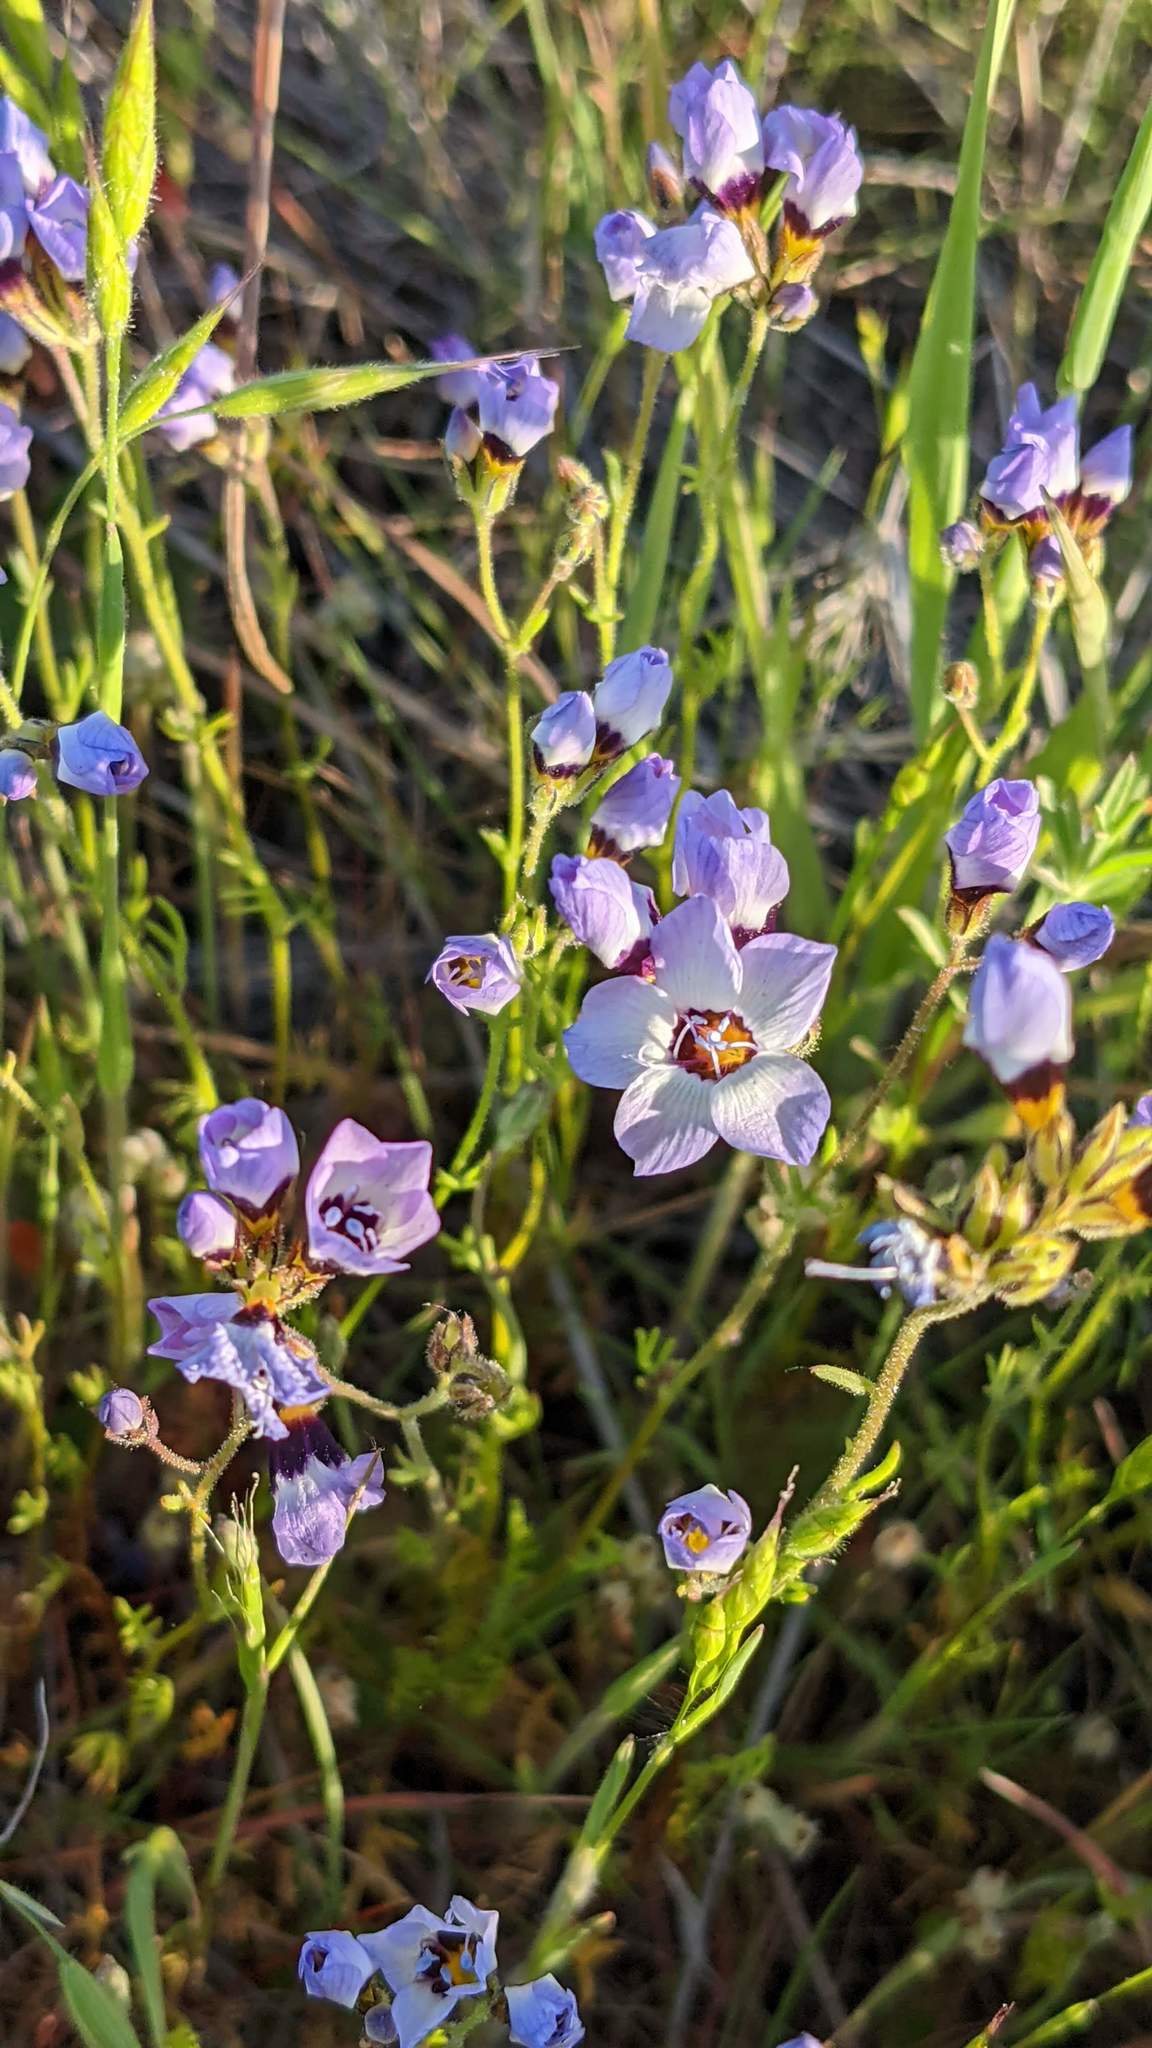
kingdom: Plantae
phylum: Tracheophyta
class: Magnoliopsida
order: Ericales
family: Polemoniaceae
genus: Gilia
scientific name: Gilia tricolor
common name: Bird's-eyes
